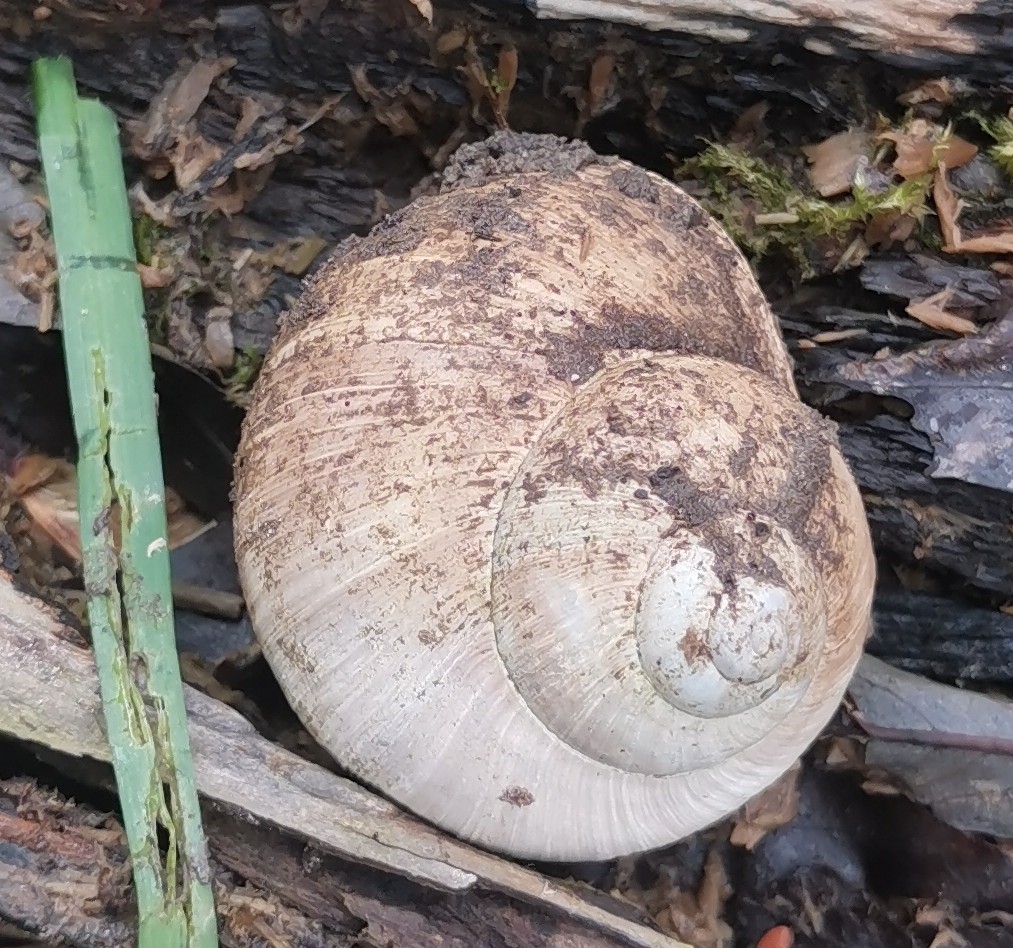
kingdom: Animalia
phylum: Mollusca
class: Gastropoda
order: Stylommatophora
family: Helicidae
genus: Helix
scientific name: Helix pomatia
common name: Roman snail
